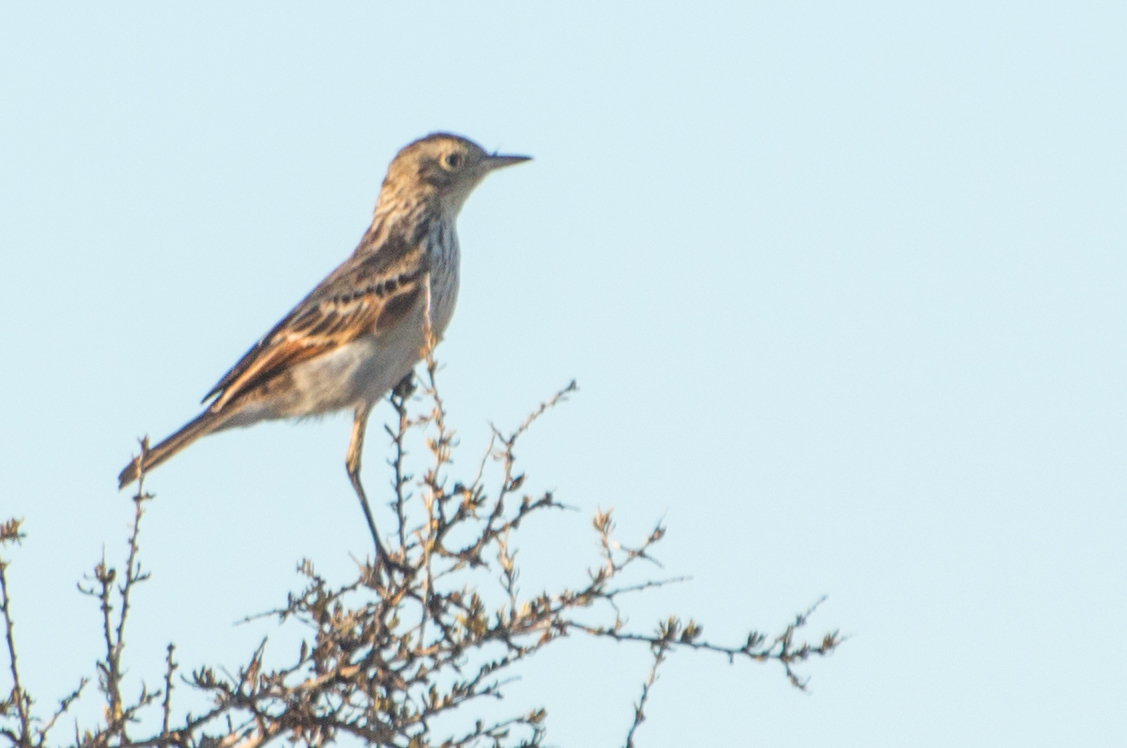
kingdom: Animalia
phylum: Chordata
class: Aves
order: Passeriformes
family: Tyrannidae
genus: Hymenops
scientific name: Hymenops perspicillatus
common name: Spectacled tyrant
